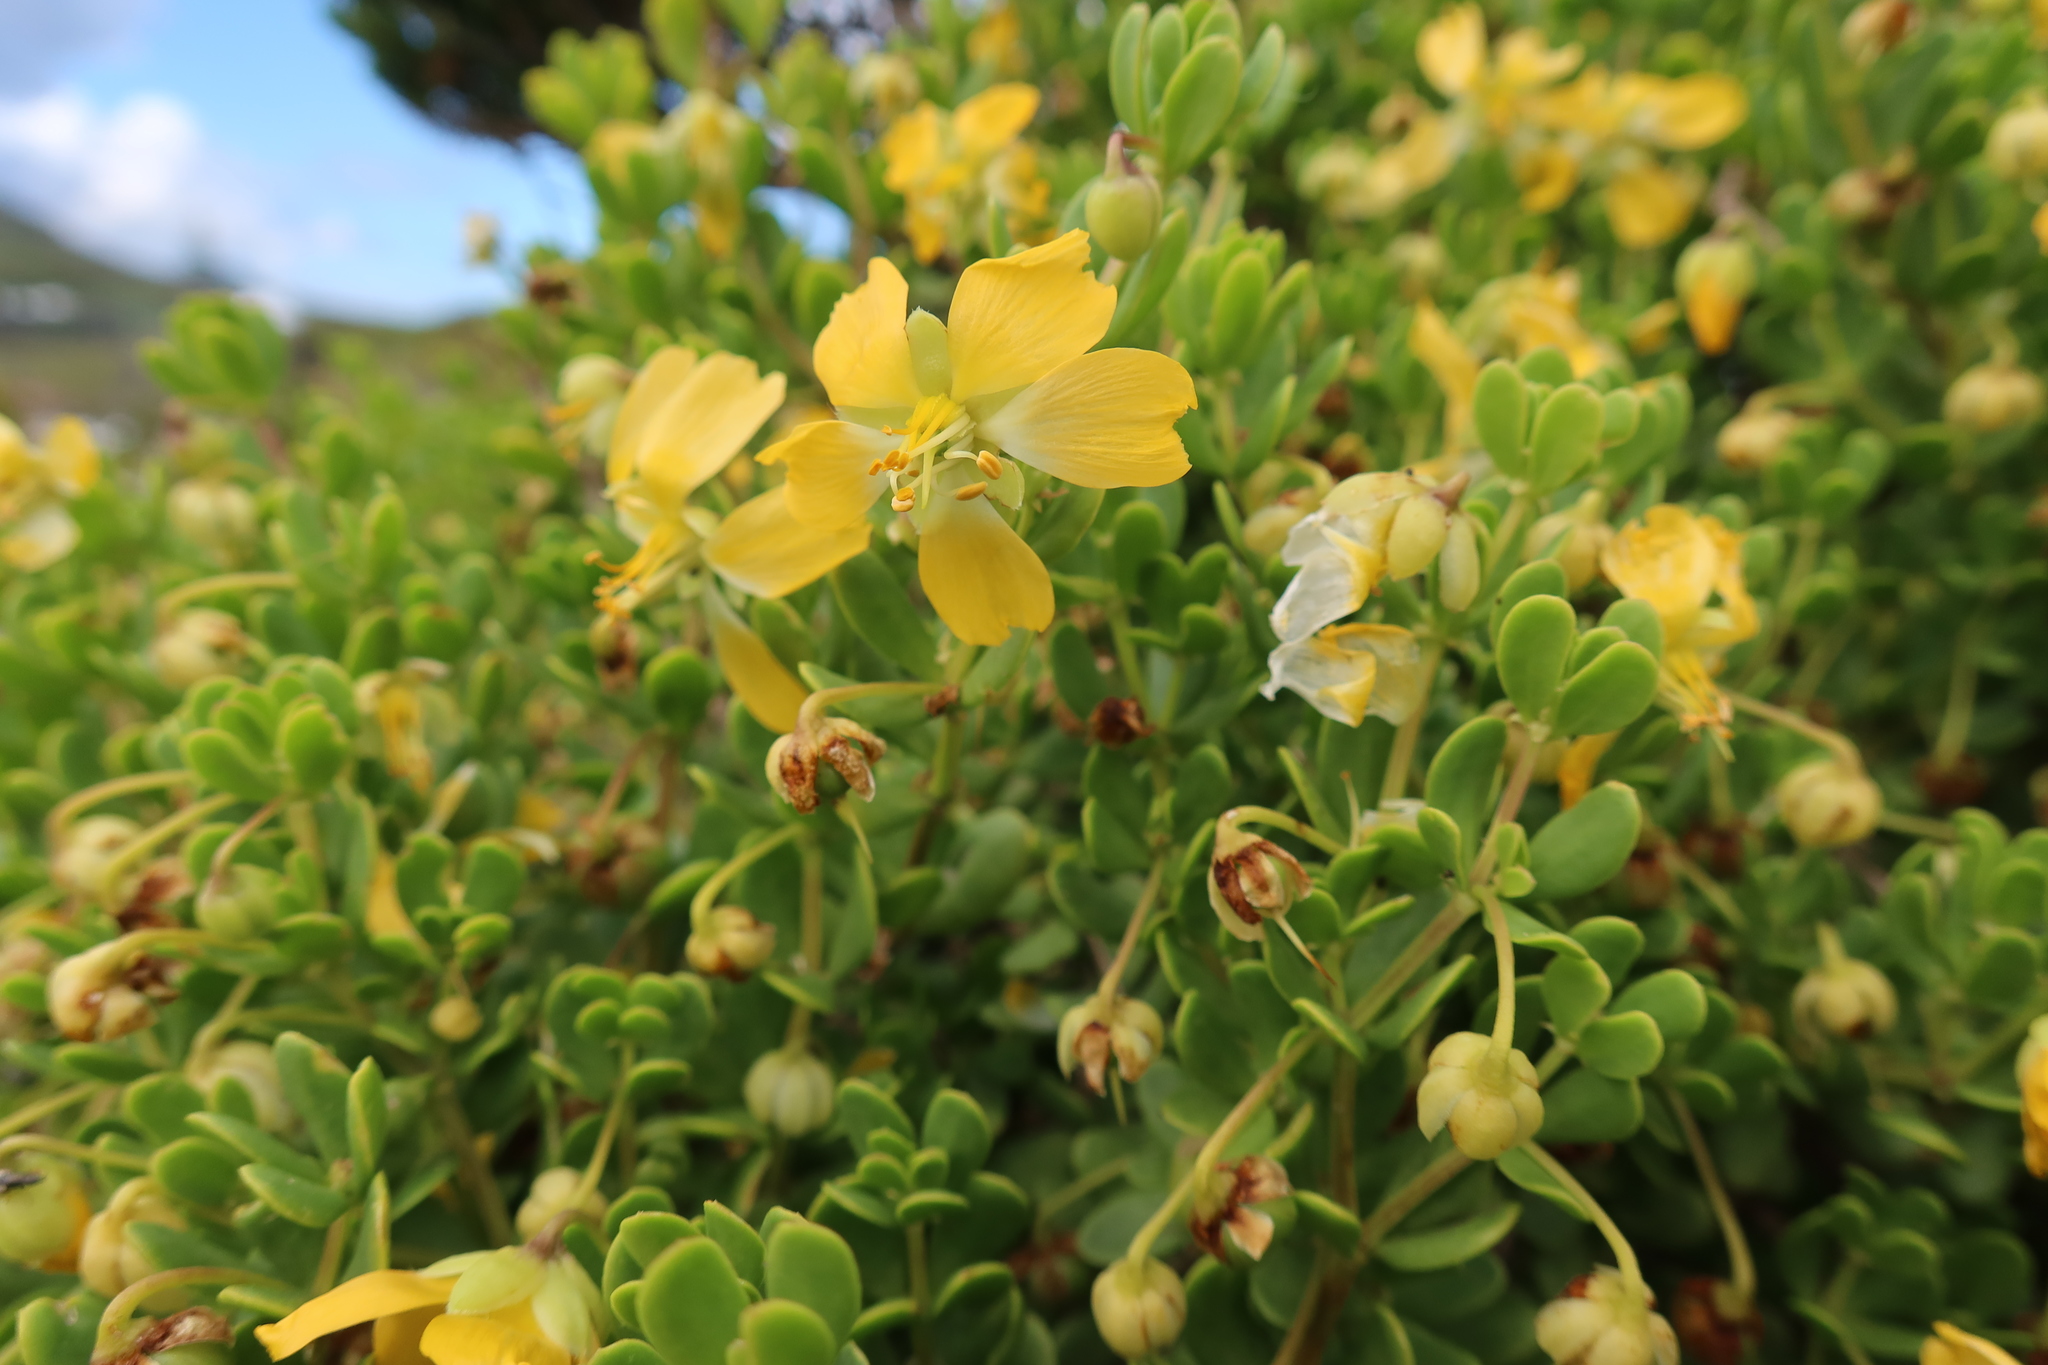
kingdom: Plantae
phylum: Tracheophyta
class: Magnoliopsida
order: Zygophyllales
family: Zygophyllaceae
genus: Roepera
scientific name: Roepera flexuosa
